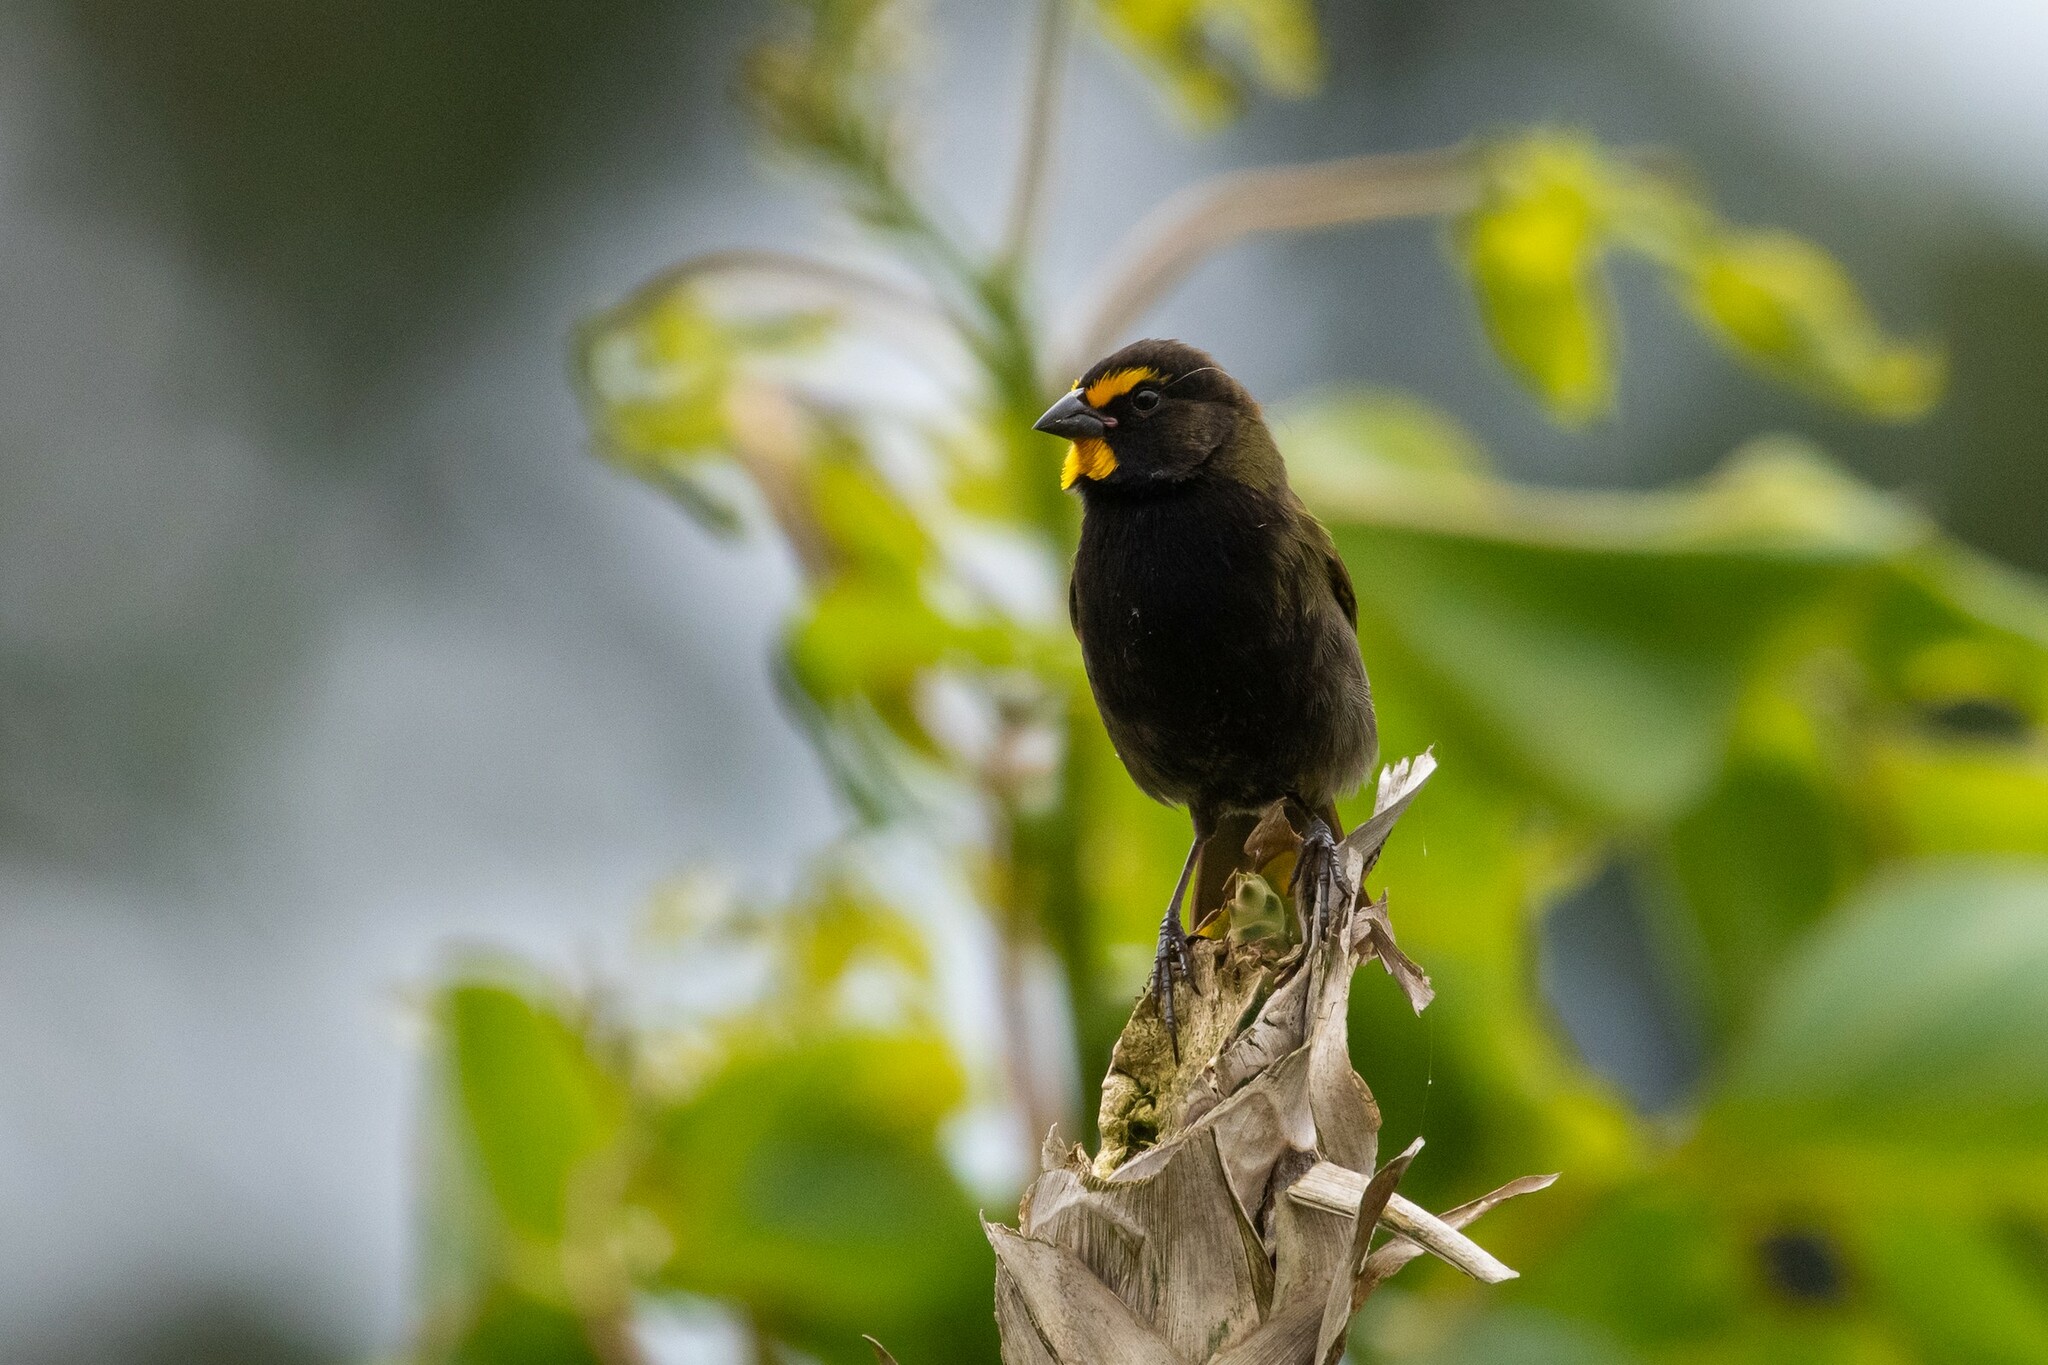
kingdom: Animalia
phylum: Chordata
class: Aves
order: Passeriformes
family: Thraupidae
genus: Tiaris
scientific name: Tiaris olivaceus
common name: Yellow-faced grassquit
